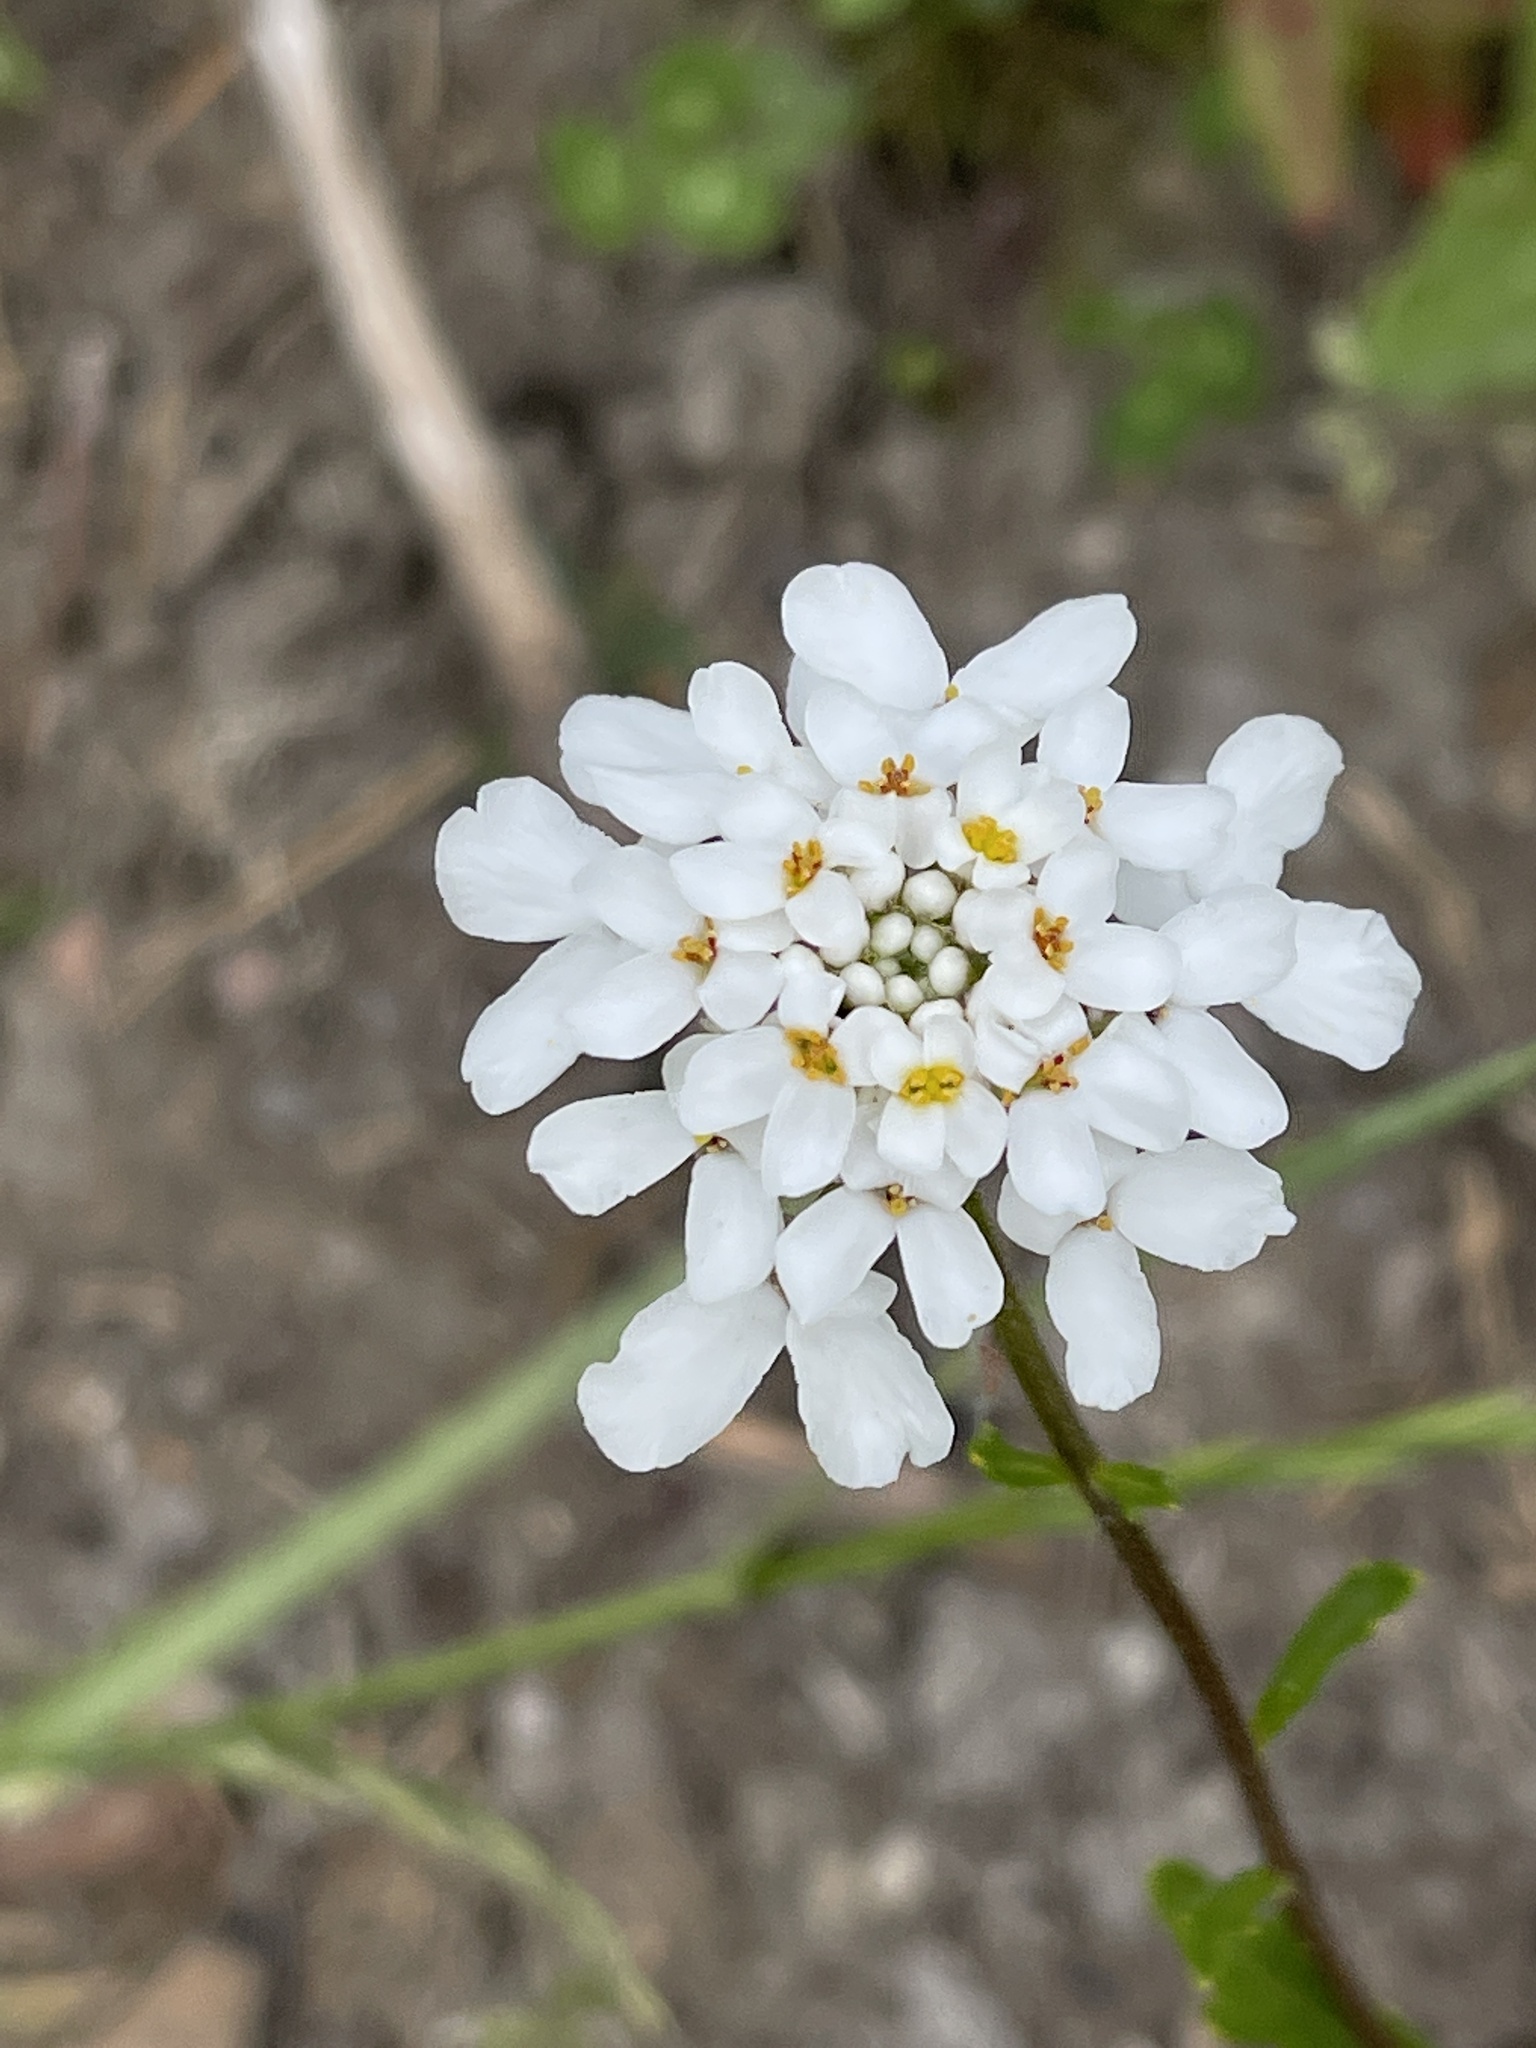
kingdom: Plantae
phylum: Tracheophyta
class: Magnoliopsida
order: Brassicales
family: Brassicaceae
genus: Iberis
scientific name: Iberis umbellata
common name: Globe candytuft
